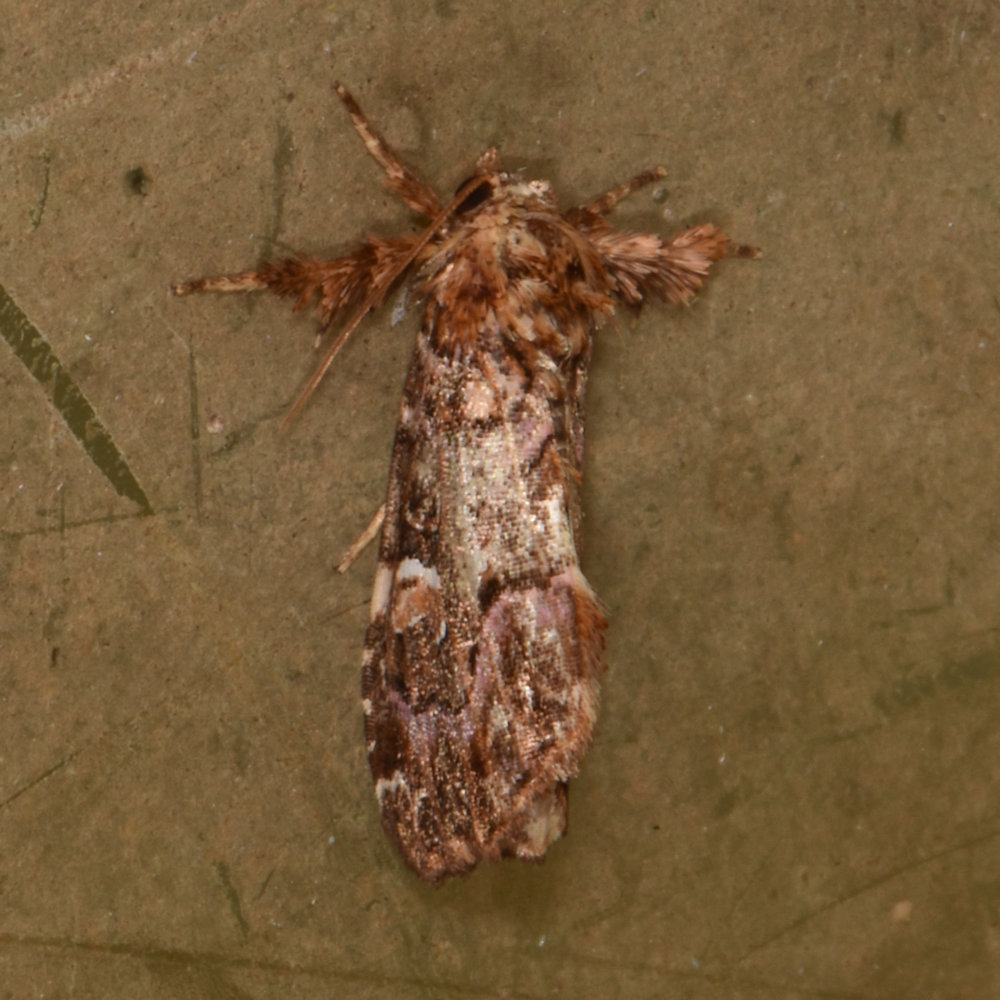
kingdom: Animalia
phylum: Arthropoda
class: Insecta
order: Lepidoptera
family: Noctuidae
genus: Callopistria
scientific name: Callopistria mollissima
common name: Pink-shaded fern moth
